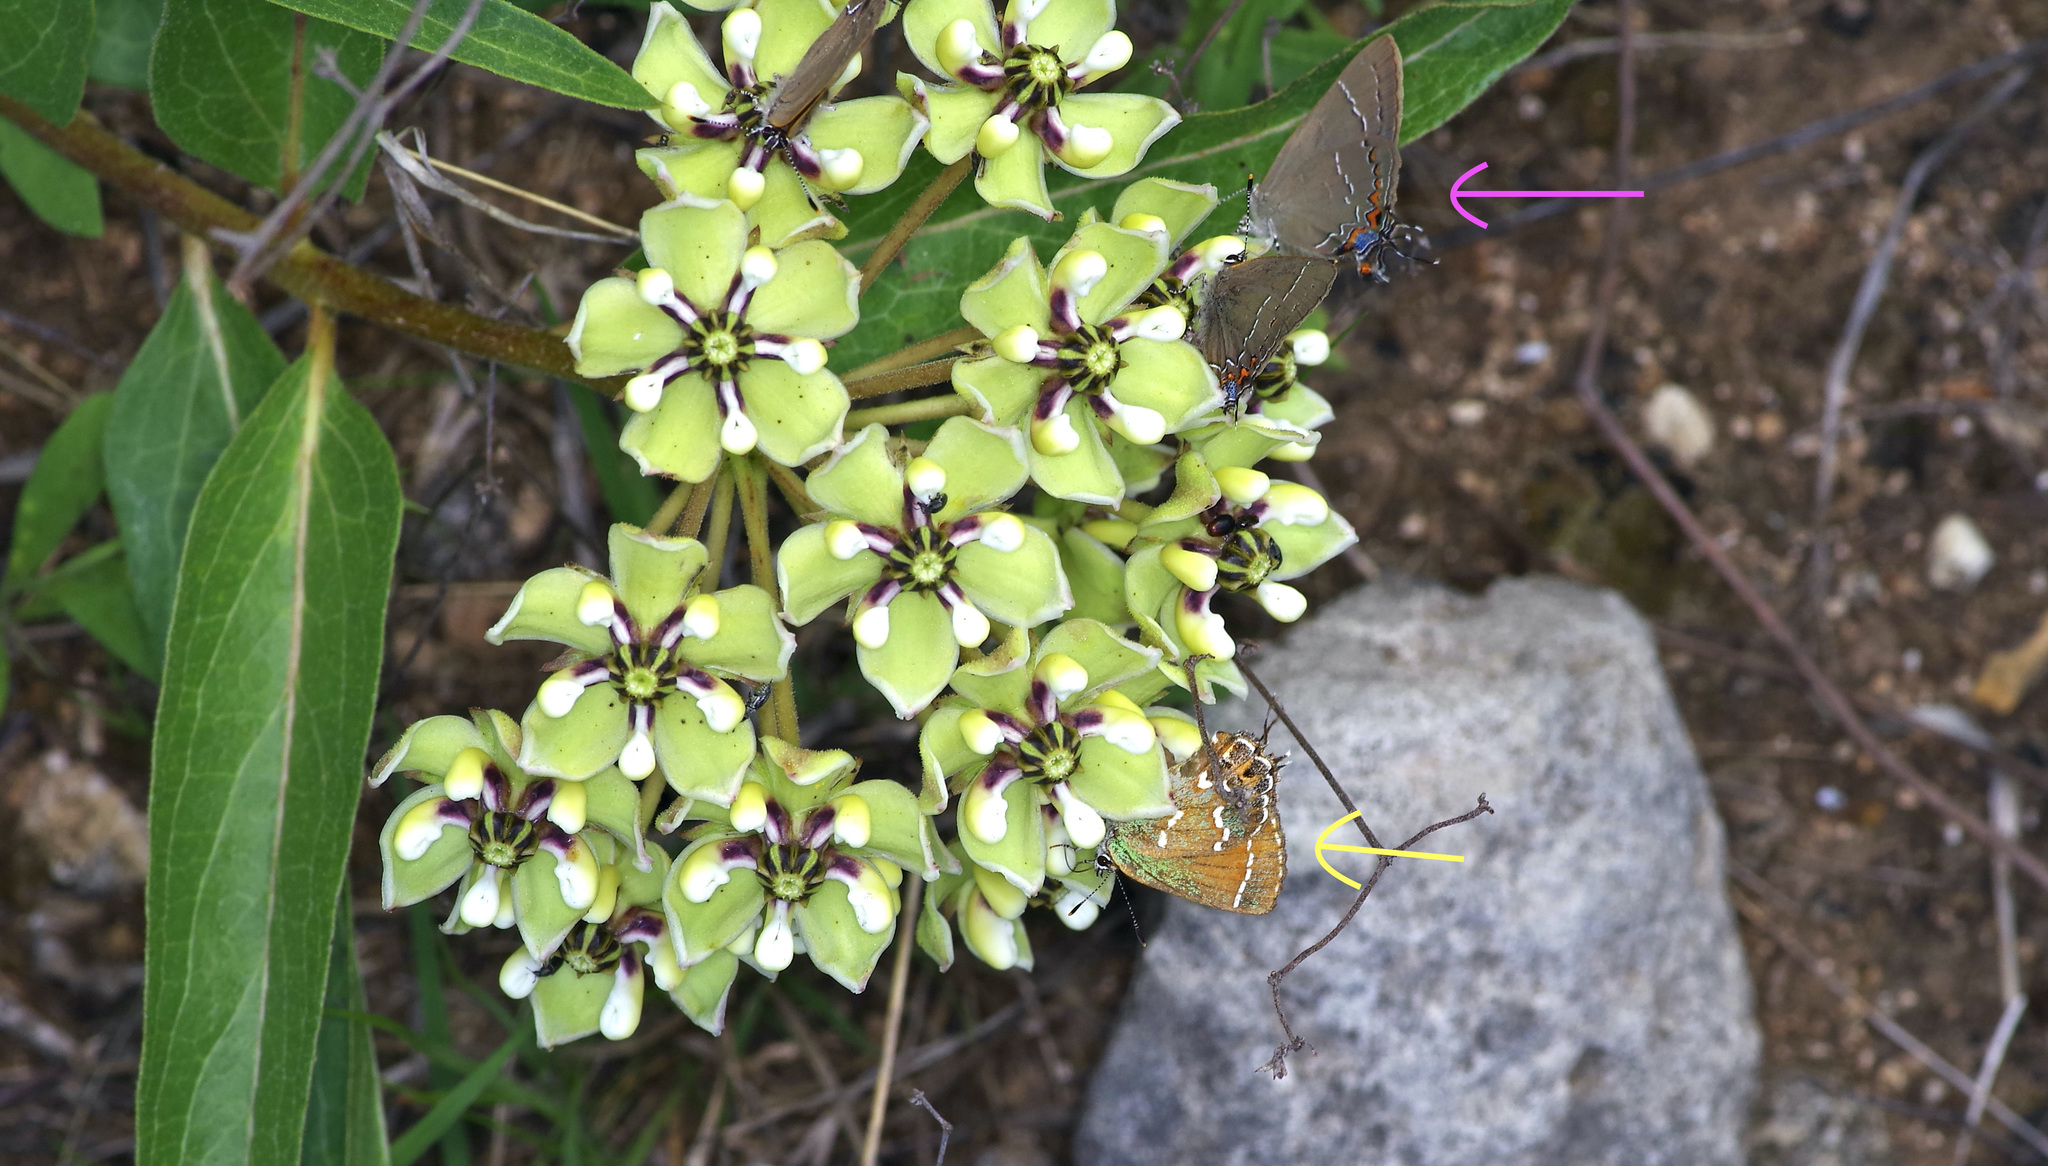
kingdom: Animalia
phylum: Arthropoda
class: Insecta
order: Lepidoptera
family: Lycaenidae
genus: Fixsenia
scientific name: Fixsenia favonius
